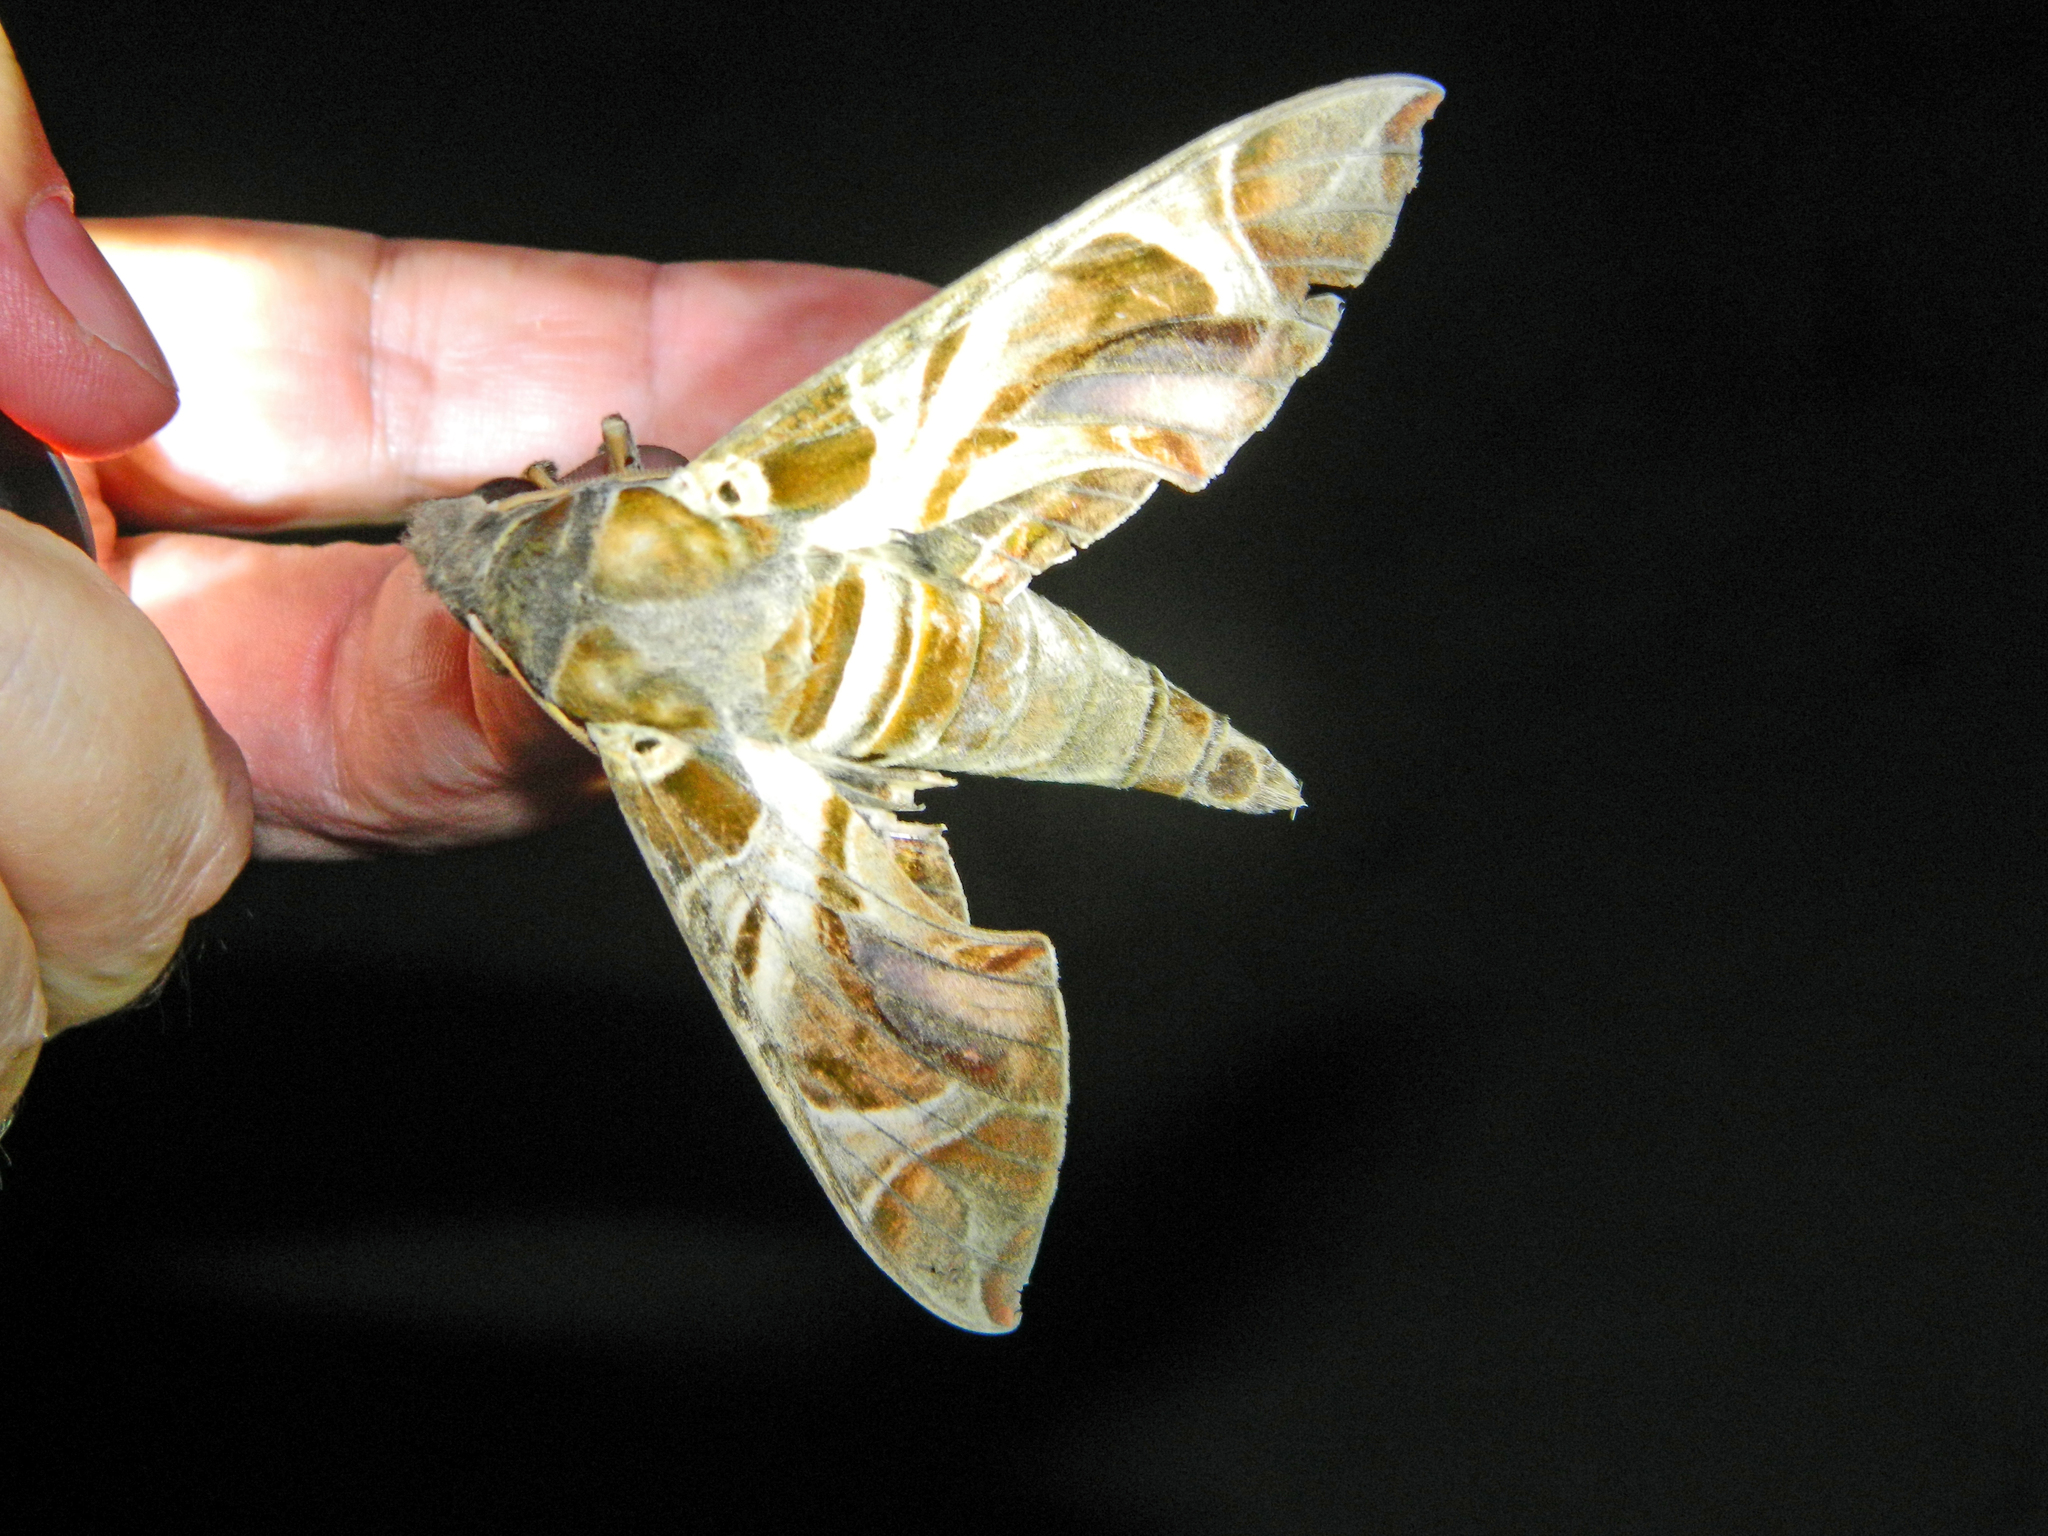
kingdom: Animalia
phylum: Arthropoda
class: Insecta
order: Lepidoptera
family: Sphingidae
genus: Daphnis
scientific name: Daphnis nerii
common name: Oleander hawk-moth
